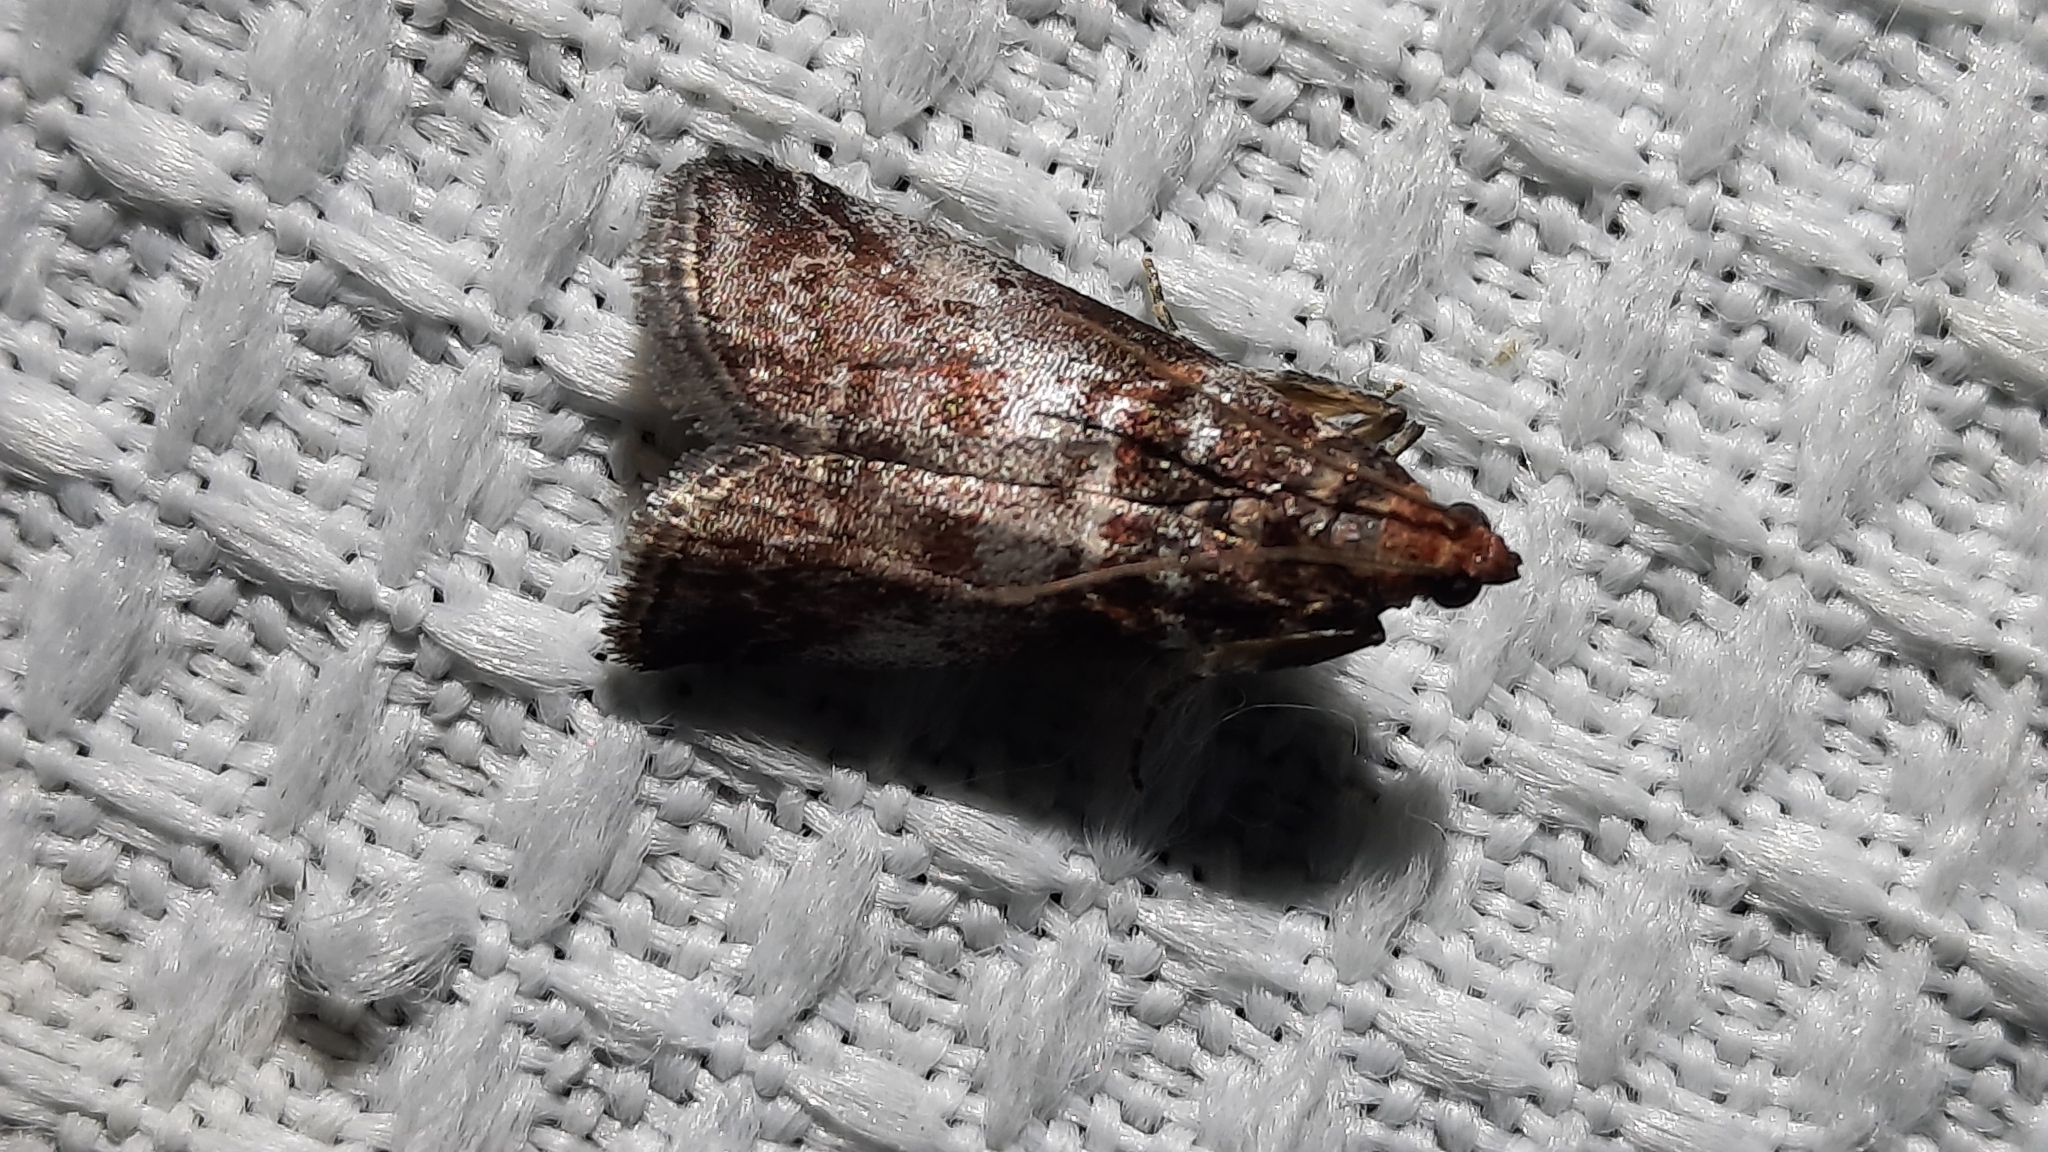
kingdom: Animalia
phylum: Arthropoda
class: Insecta
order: Lepidoptera
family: Pyralidae
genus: Acrobasis
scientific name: Acrobasis advenella
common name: Grey knot-horn
